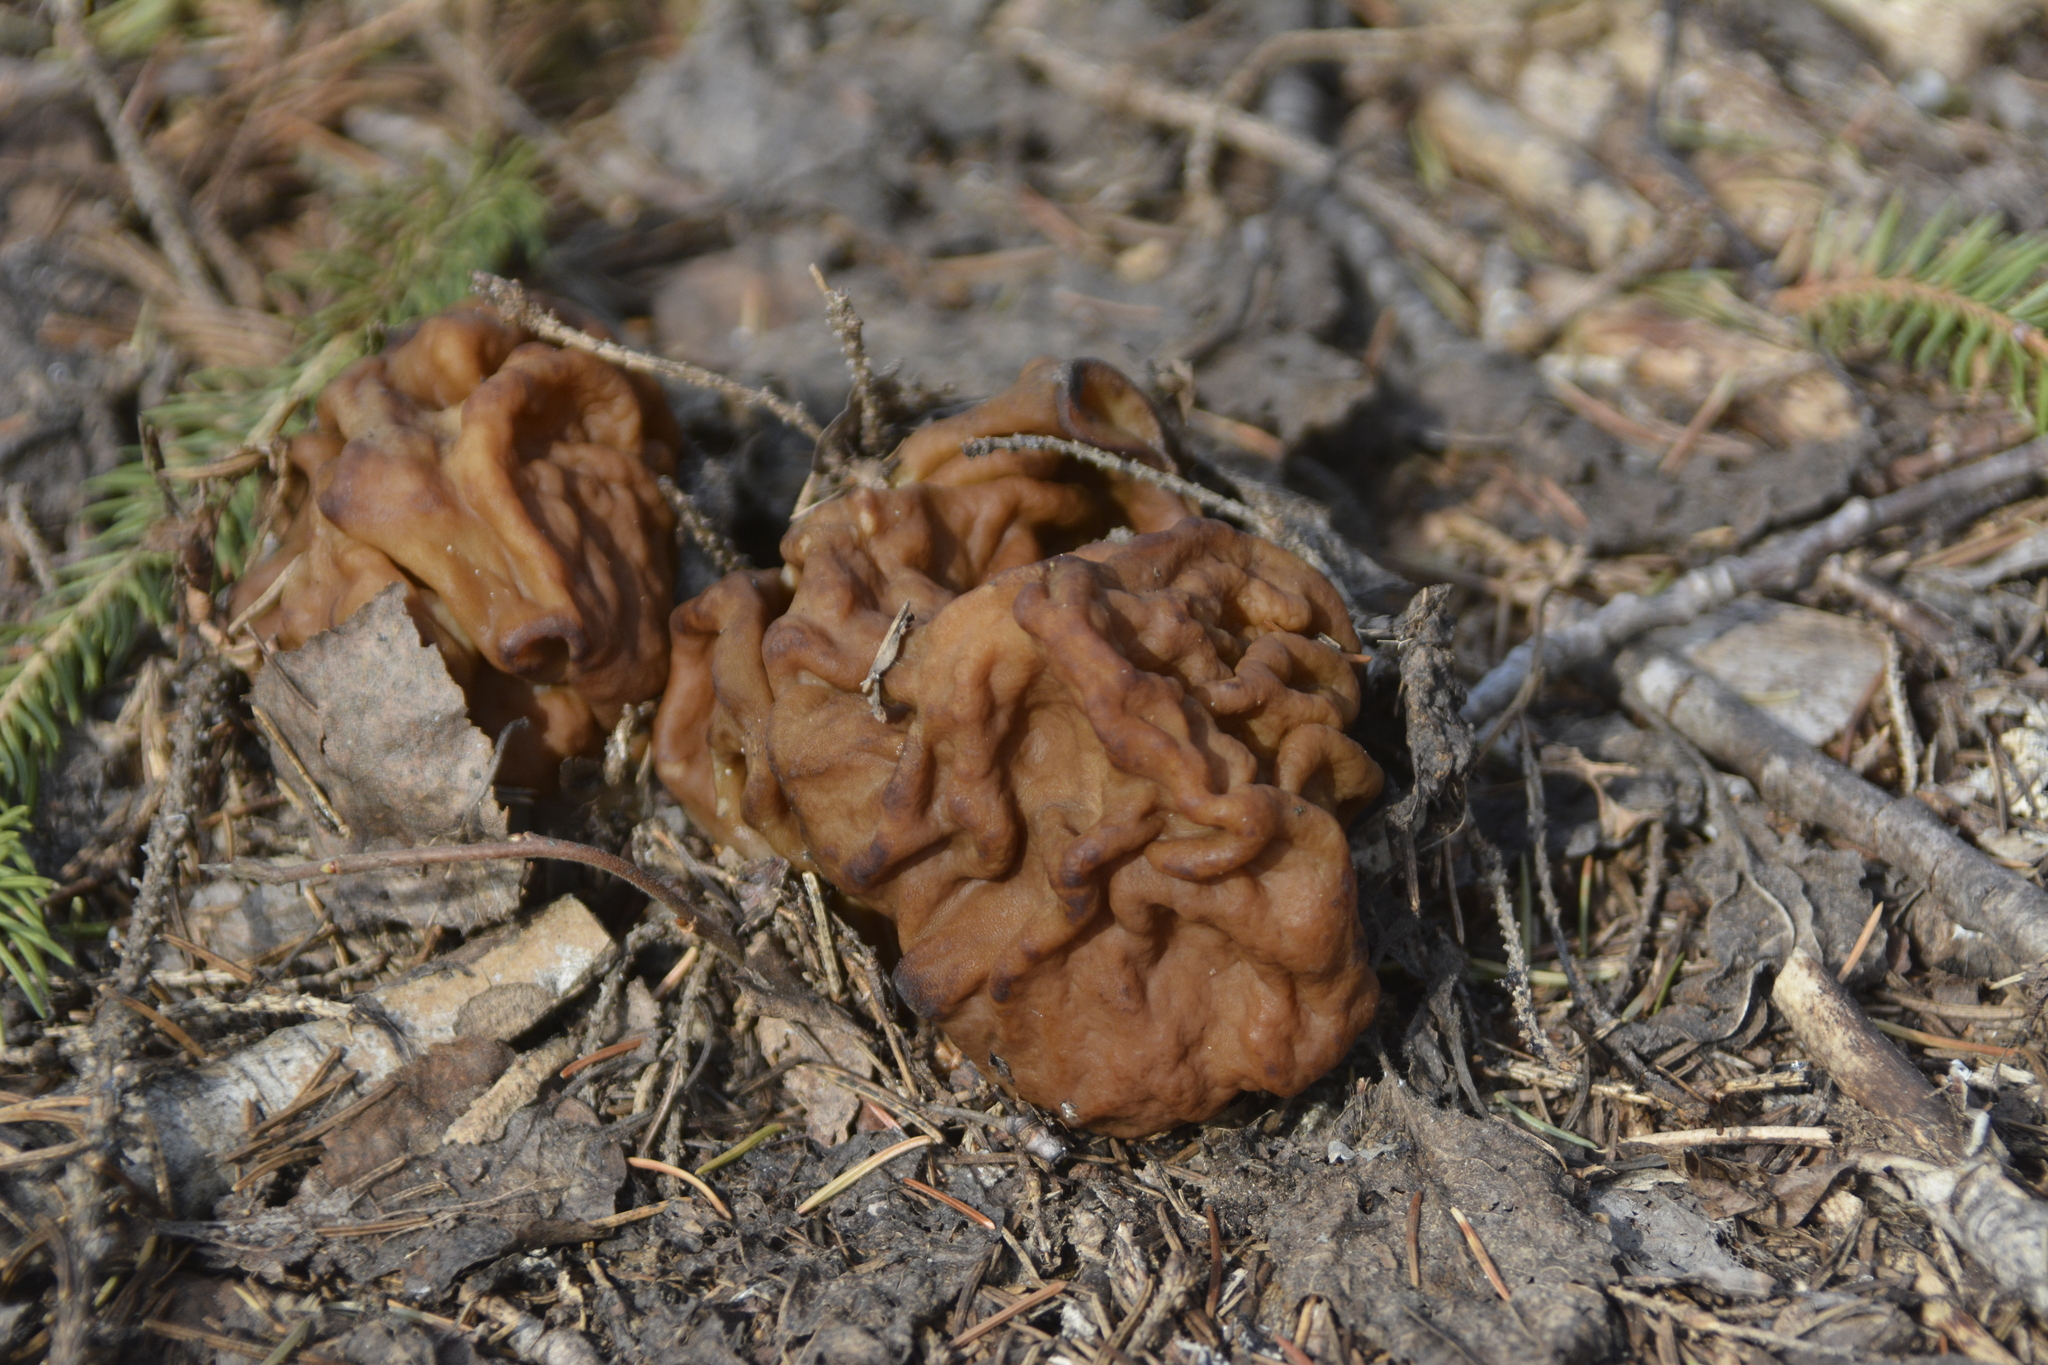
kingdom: Fungi
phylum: Ascomycota
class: Pezizomycetes
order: Pezizales
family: Discinaceae
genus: Gyromitra
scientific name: Gyromitra gigas
